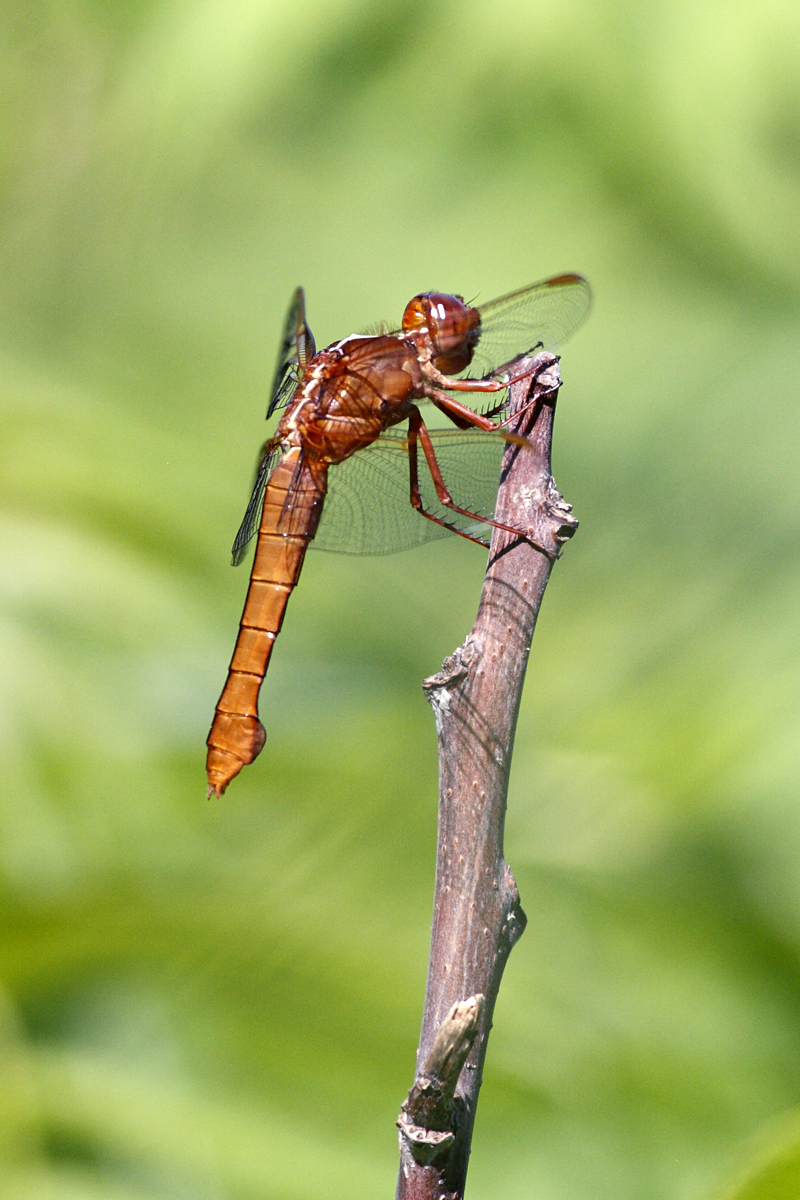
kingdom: Animalia
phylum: Arthropoda
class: Insecta
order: Odonata
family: Libellulidae
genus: Libellula
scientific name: Libellula croceipennis
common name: Neon skimmer
